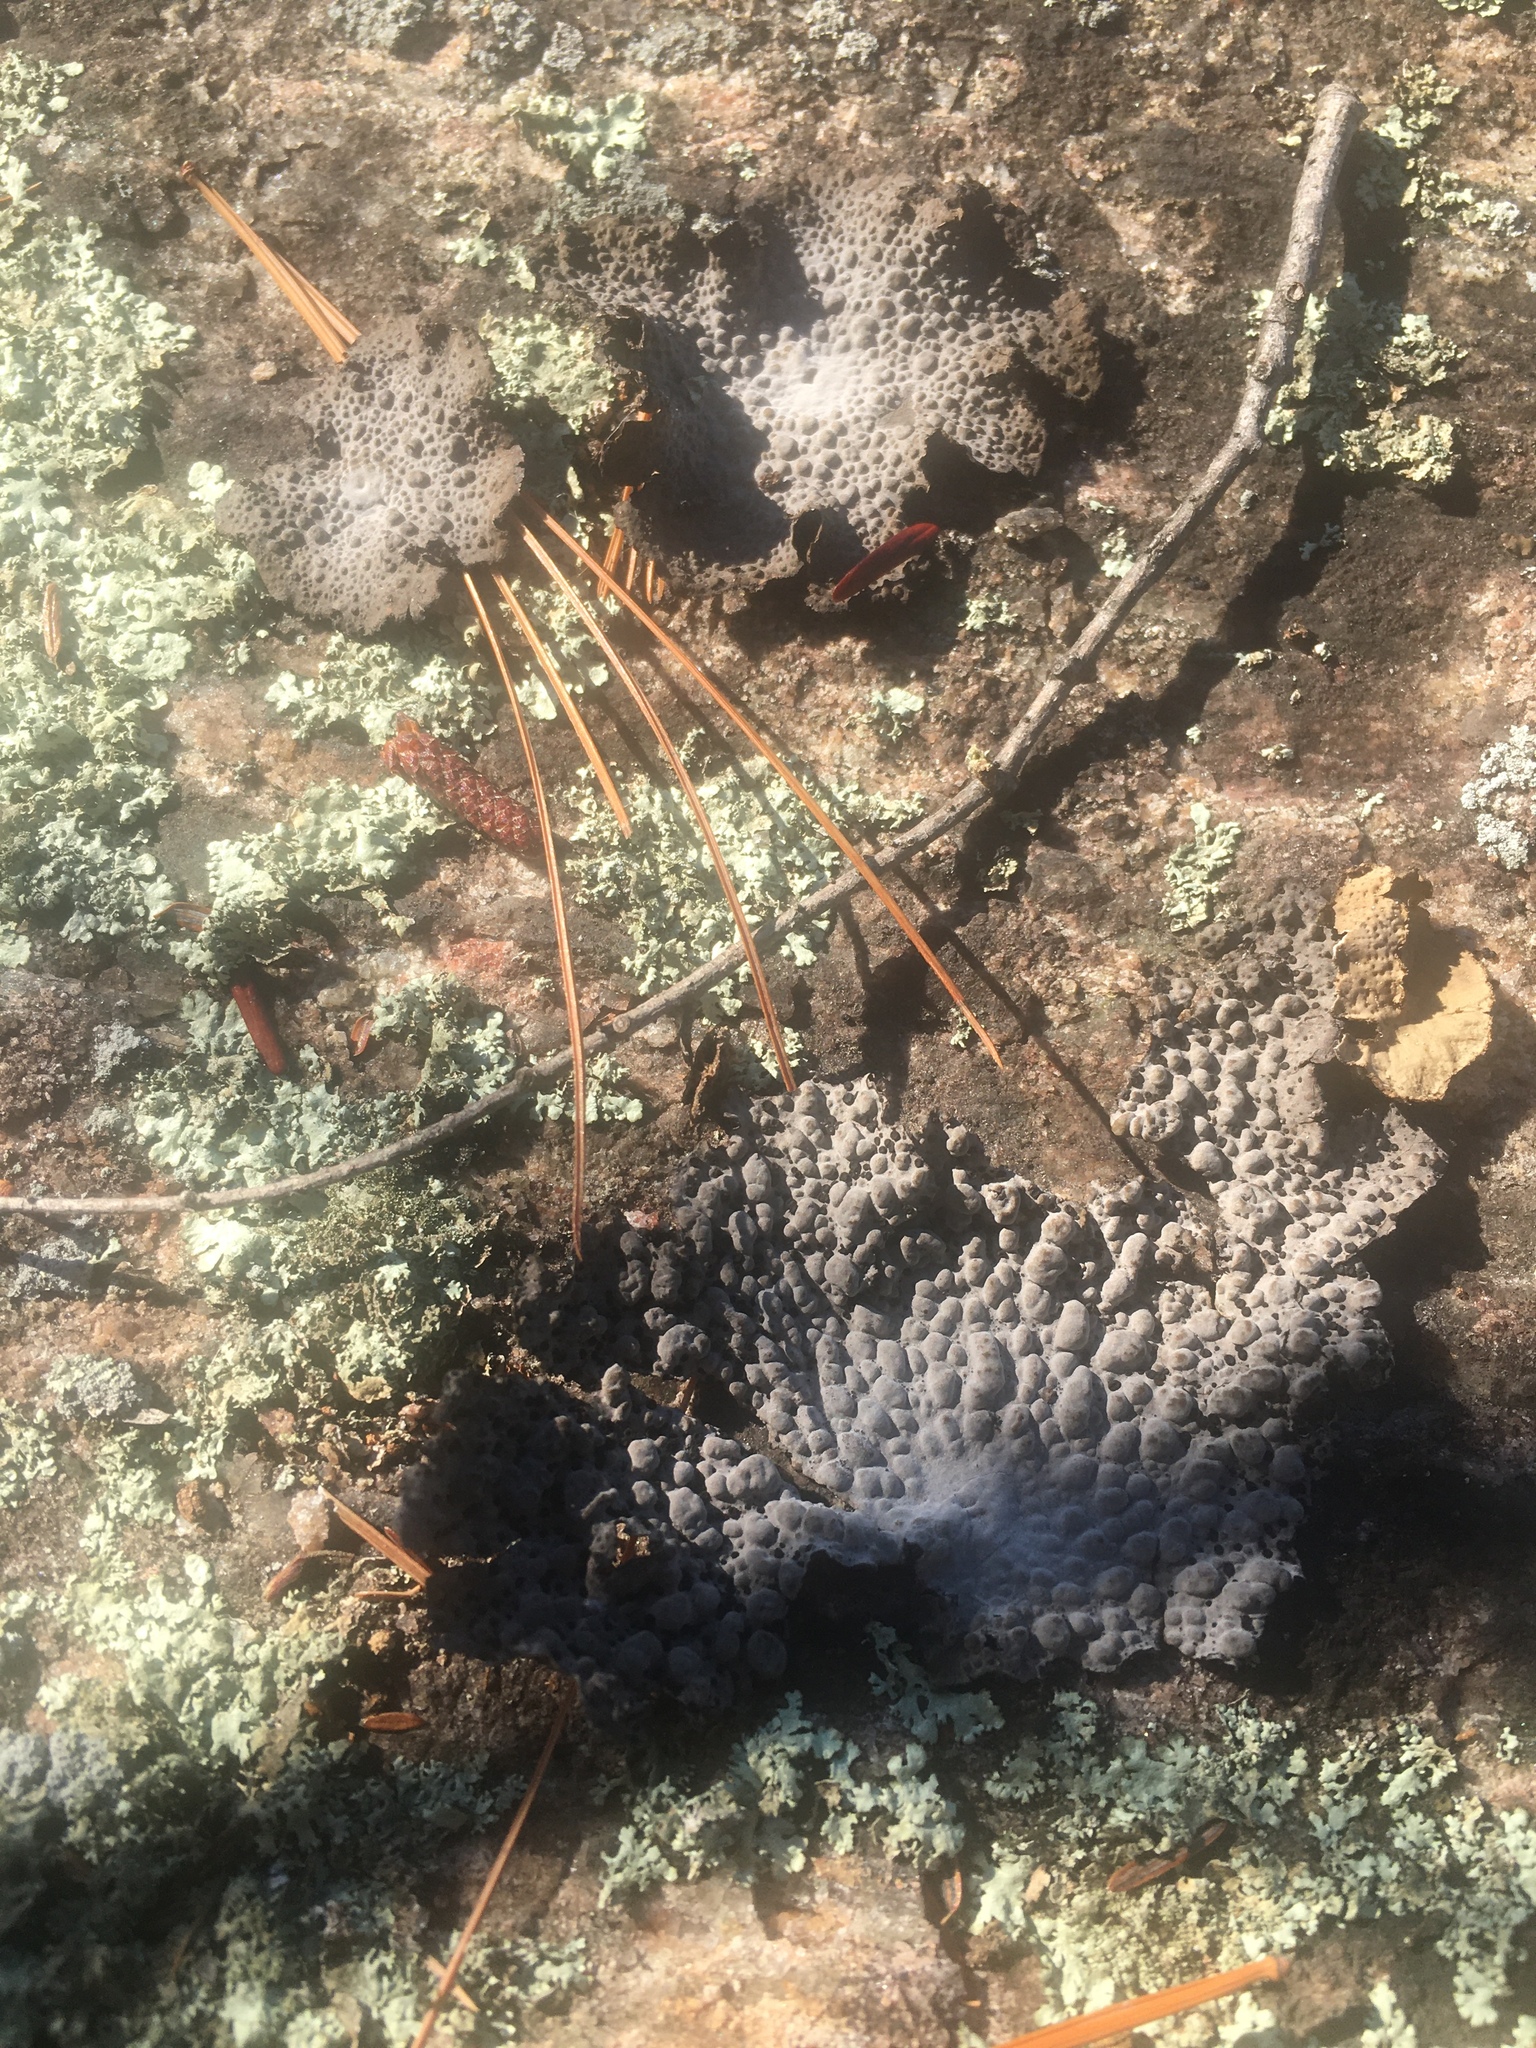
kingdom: Fungi
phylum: Ascomycota
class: Lecanoromycetes
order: Umbilicariales
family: Umbilicariaceae
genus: Lasallia
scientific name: Lasallia papulosa
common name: Common toadskin lichen
